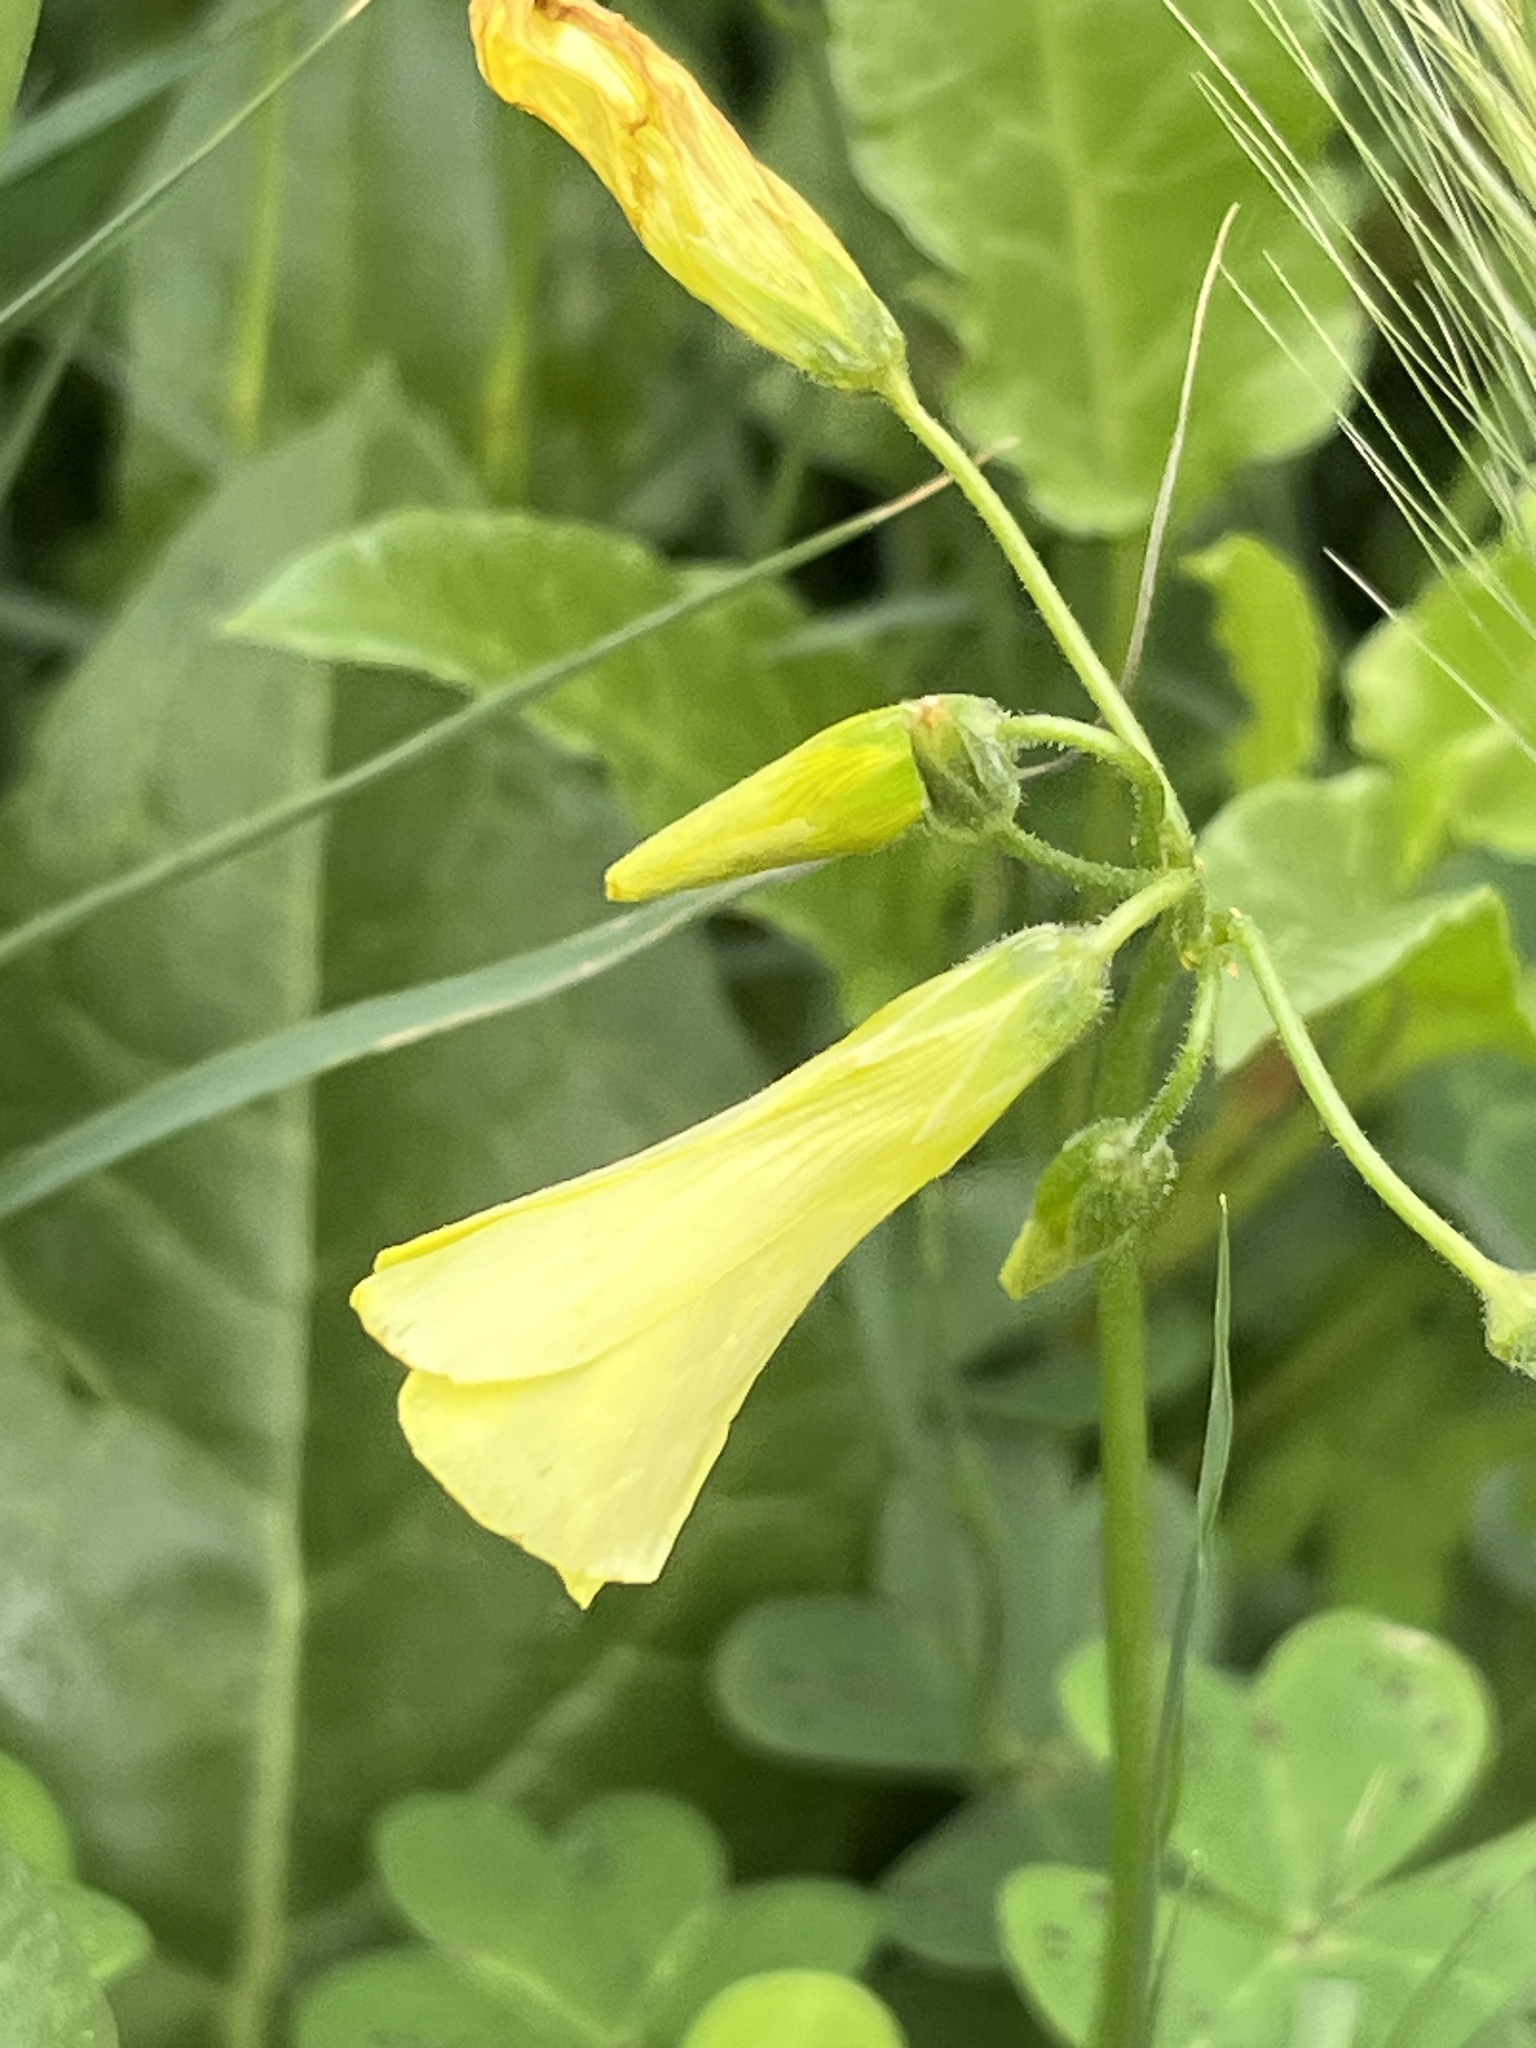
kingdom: Plantae
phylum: Tracheophyta
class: Magnoliopsida
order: Oxalidales
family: Oxalidaceae
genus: Oxalis
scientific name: Oxalis pes-caprae
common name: Bermuda-buttercup
